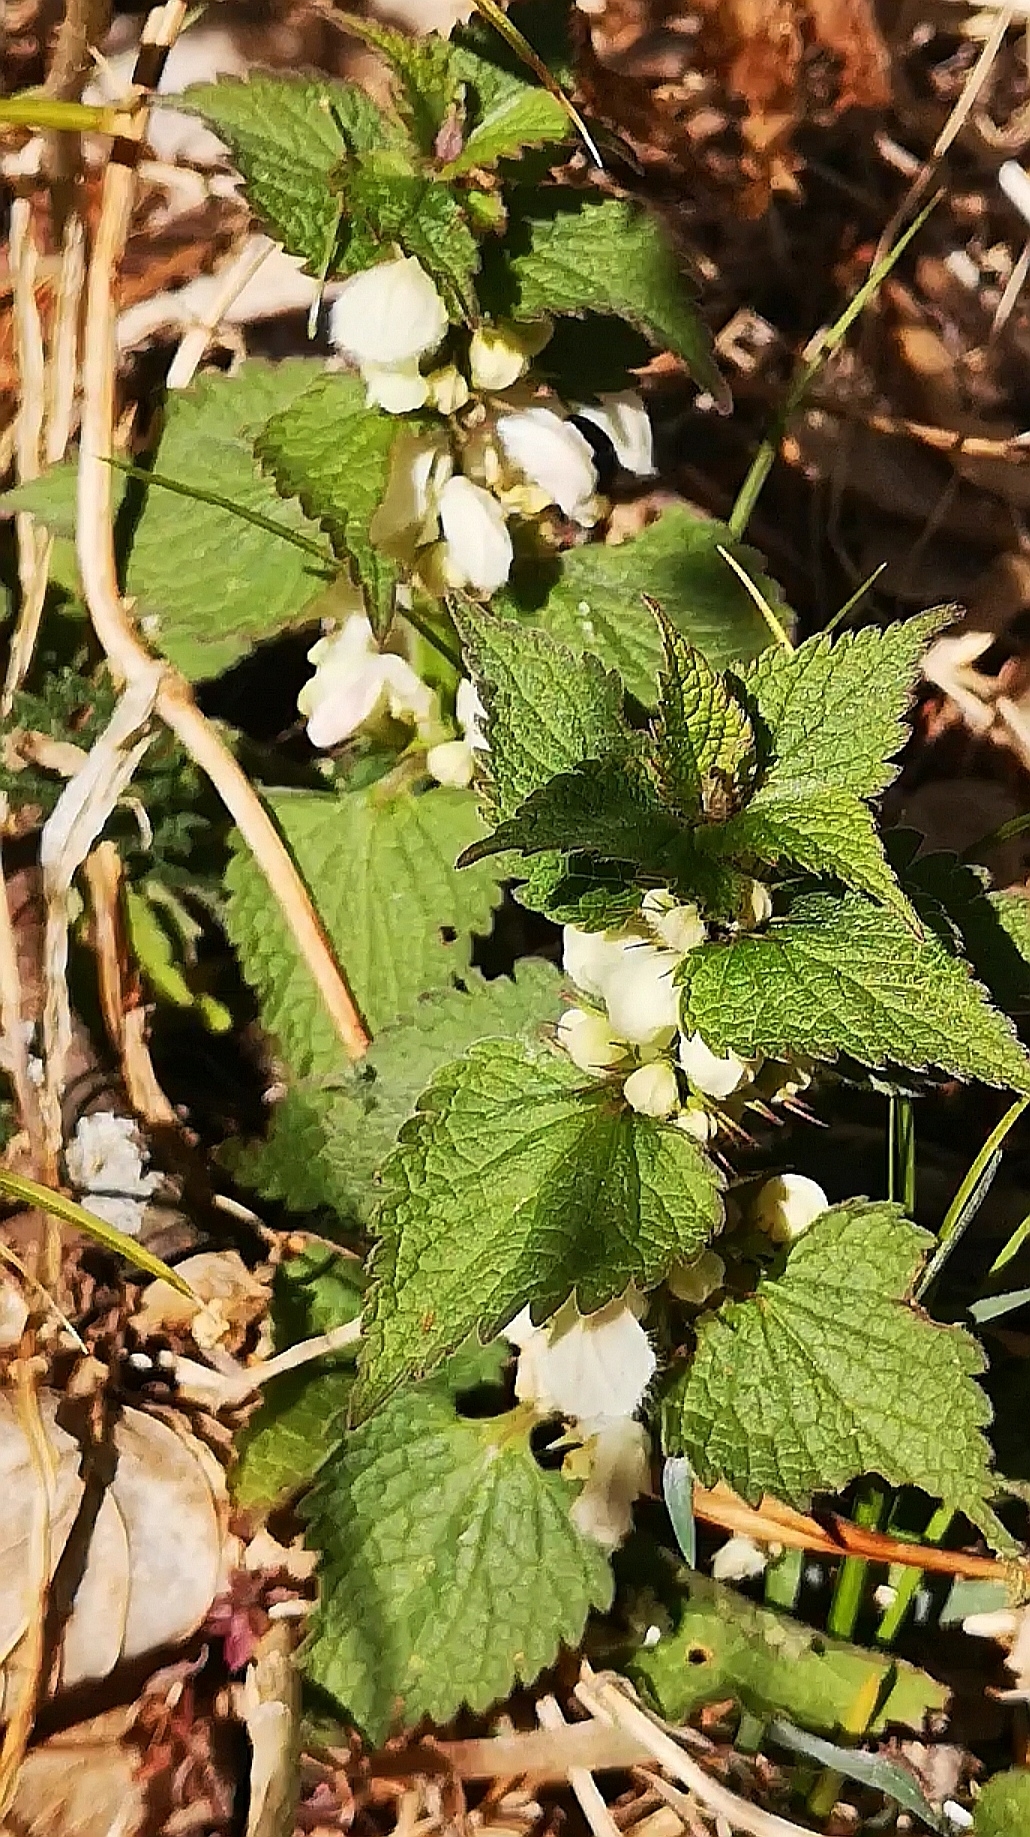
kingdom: Plantae
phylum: Tracheophyta
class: Magnoliopsida
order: Lamiales
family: Lamiaceae
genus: Lamium
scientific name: Lamium album
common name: White dead-nettle
